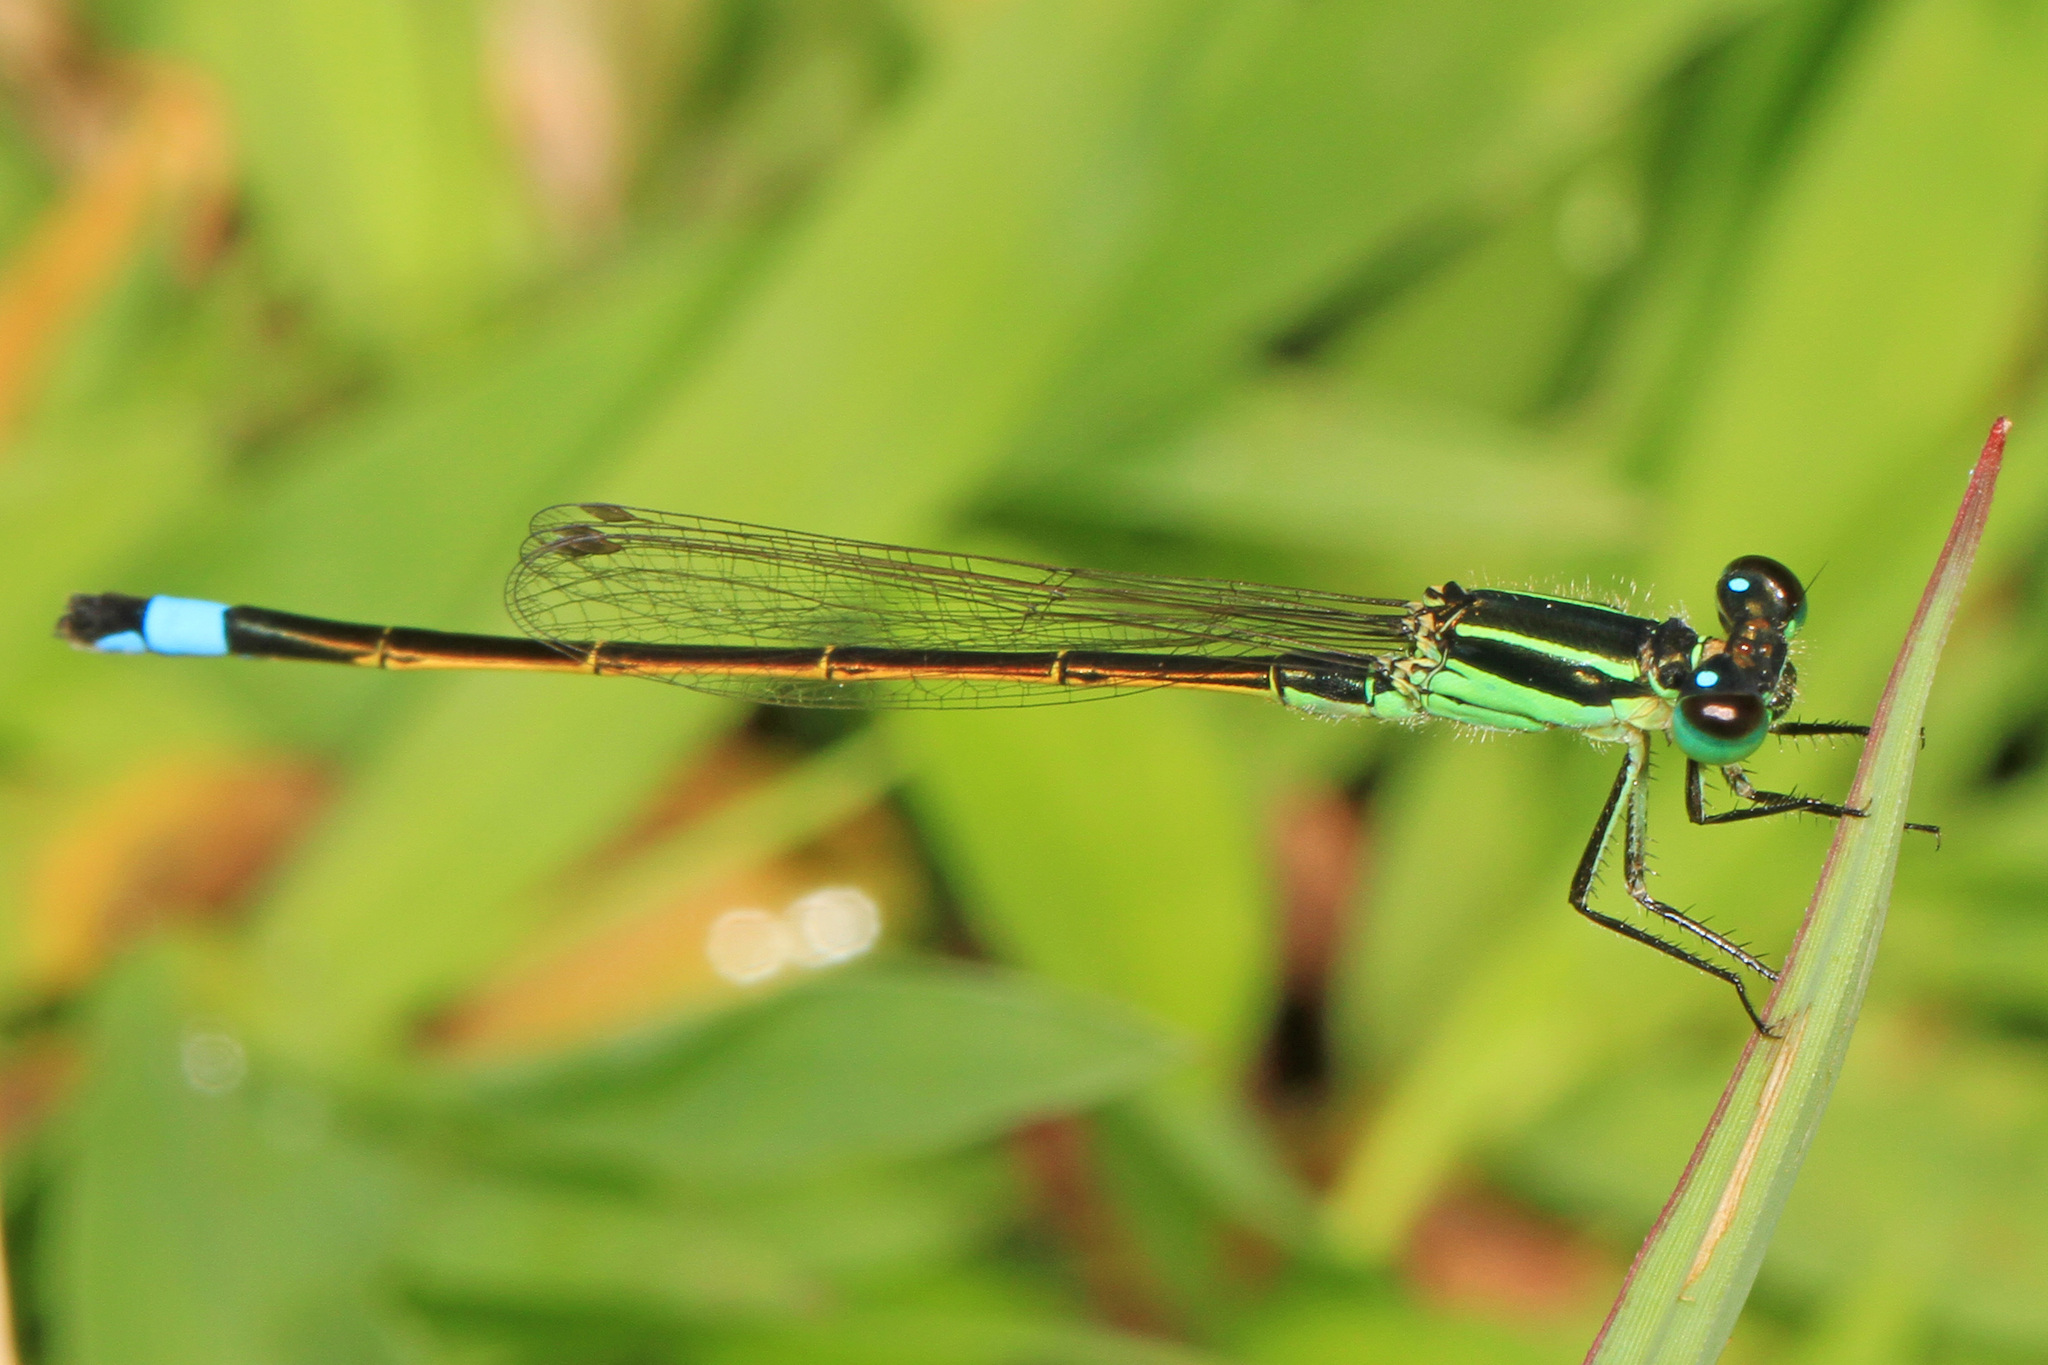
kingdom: Animalia
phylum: Arthropoda
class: Insecta
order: Odonata
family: Coenagrionidae
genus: Ischnura
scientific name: Ischnura ramburii
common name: Rambur's forktail
